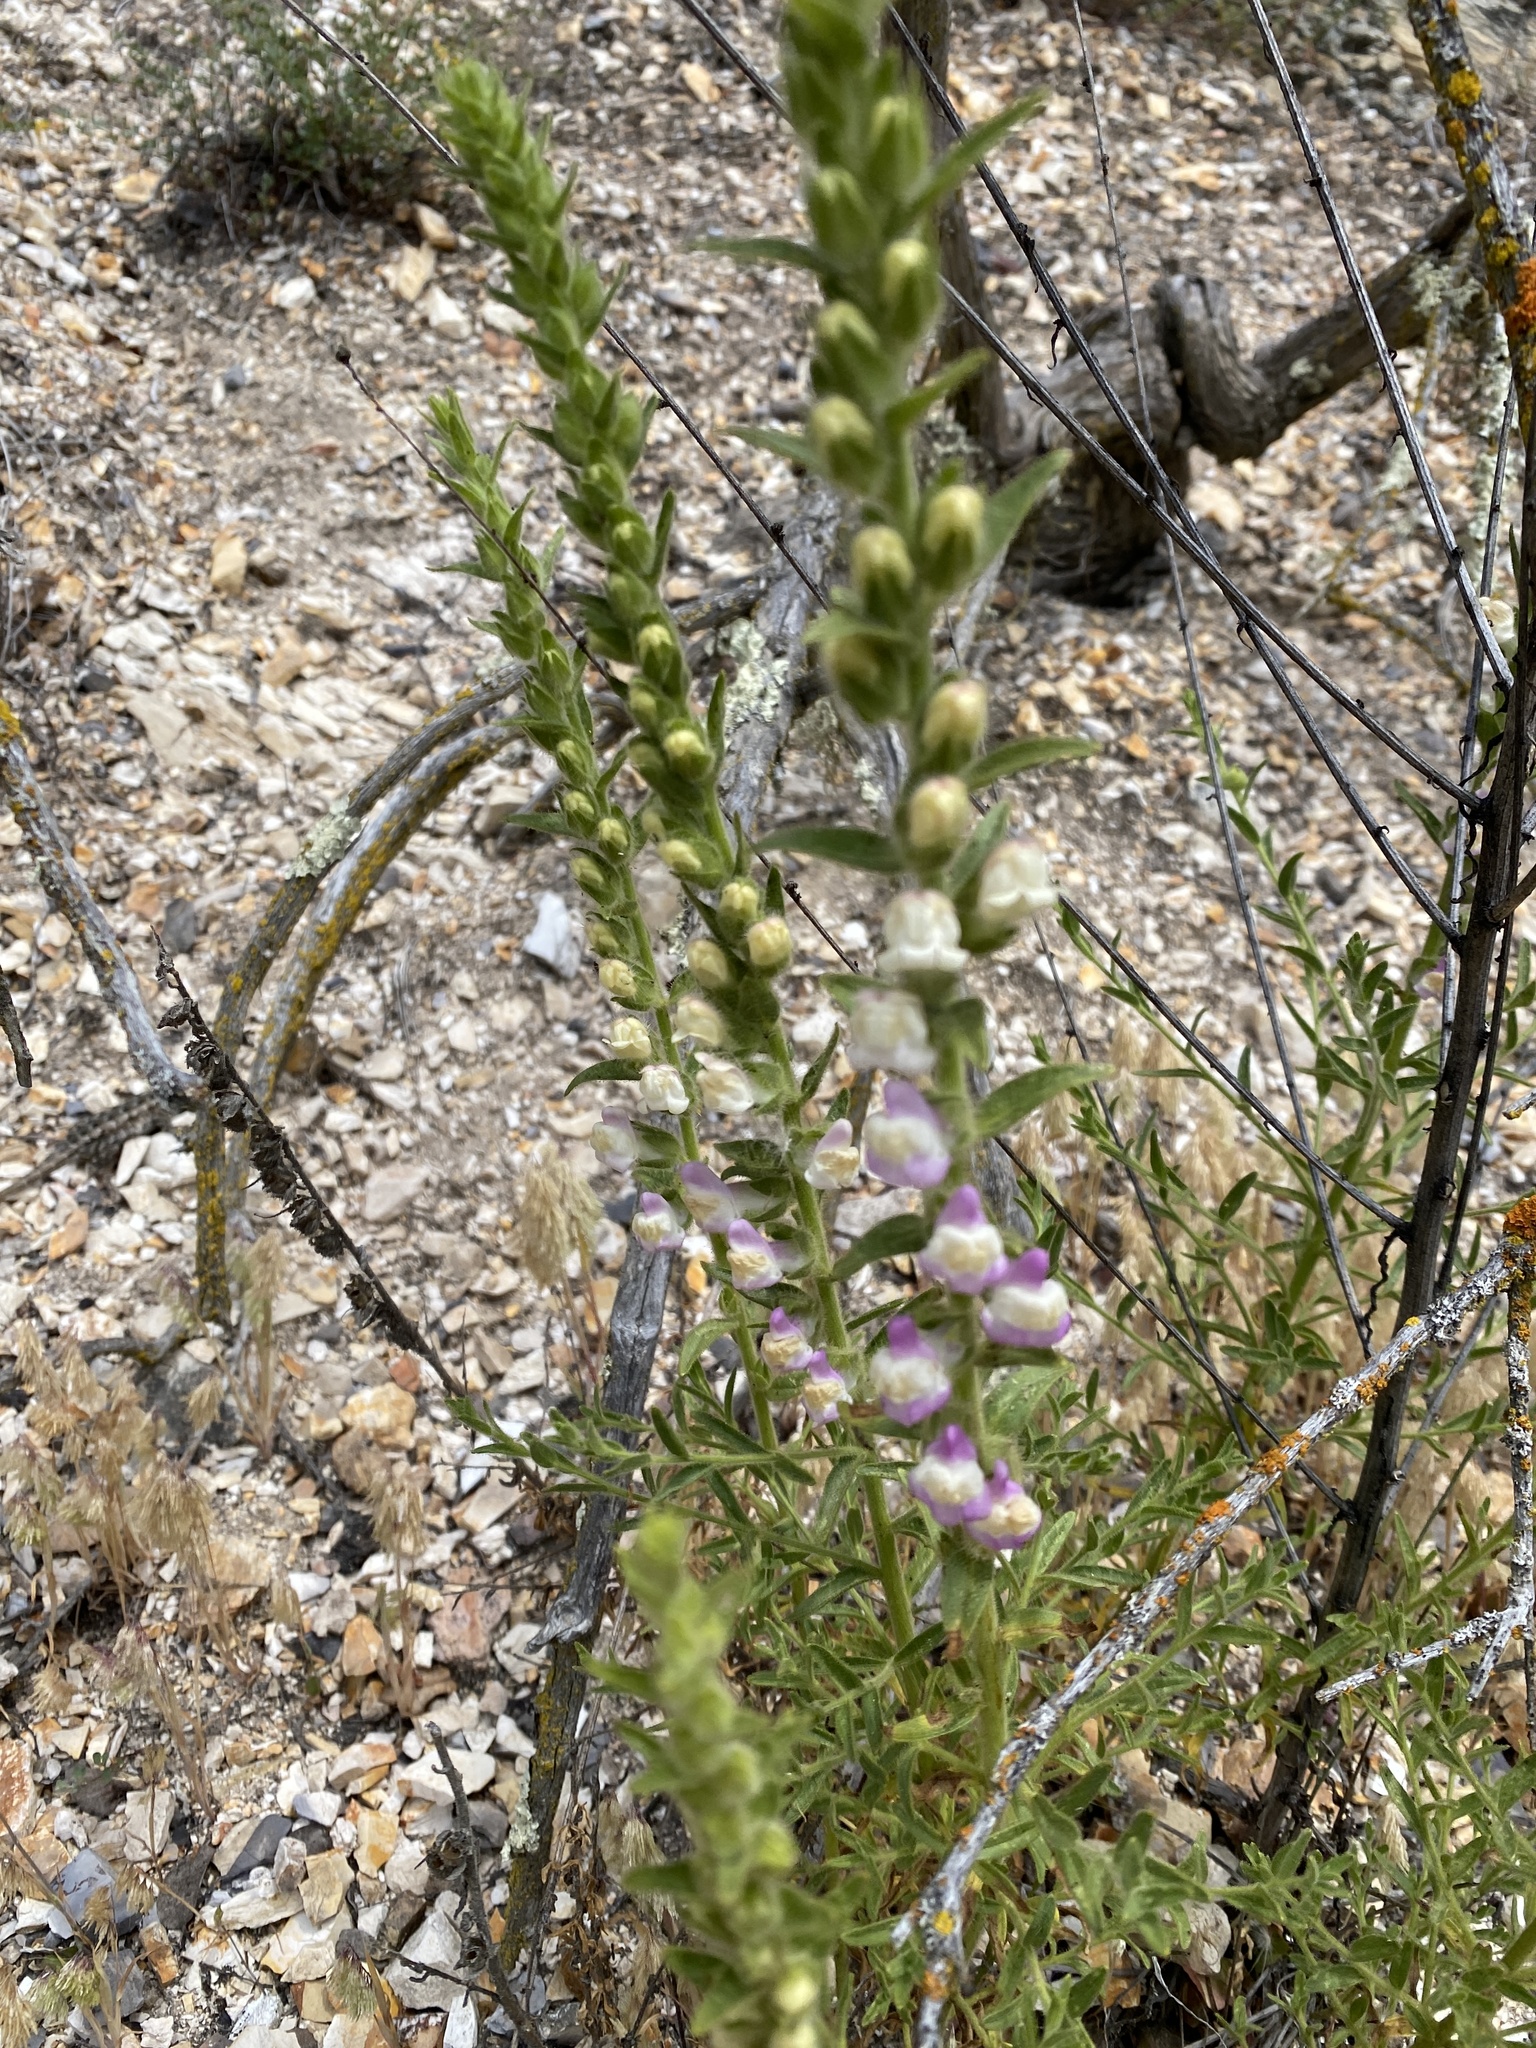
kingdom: Plantae
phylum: Tracheophyta
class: Magnoliopsida
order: Lamiales
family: Plantaginaceae
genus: Sairocarpus
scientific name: Sairocarpus multiflorus
